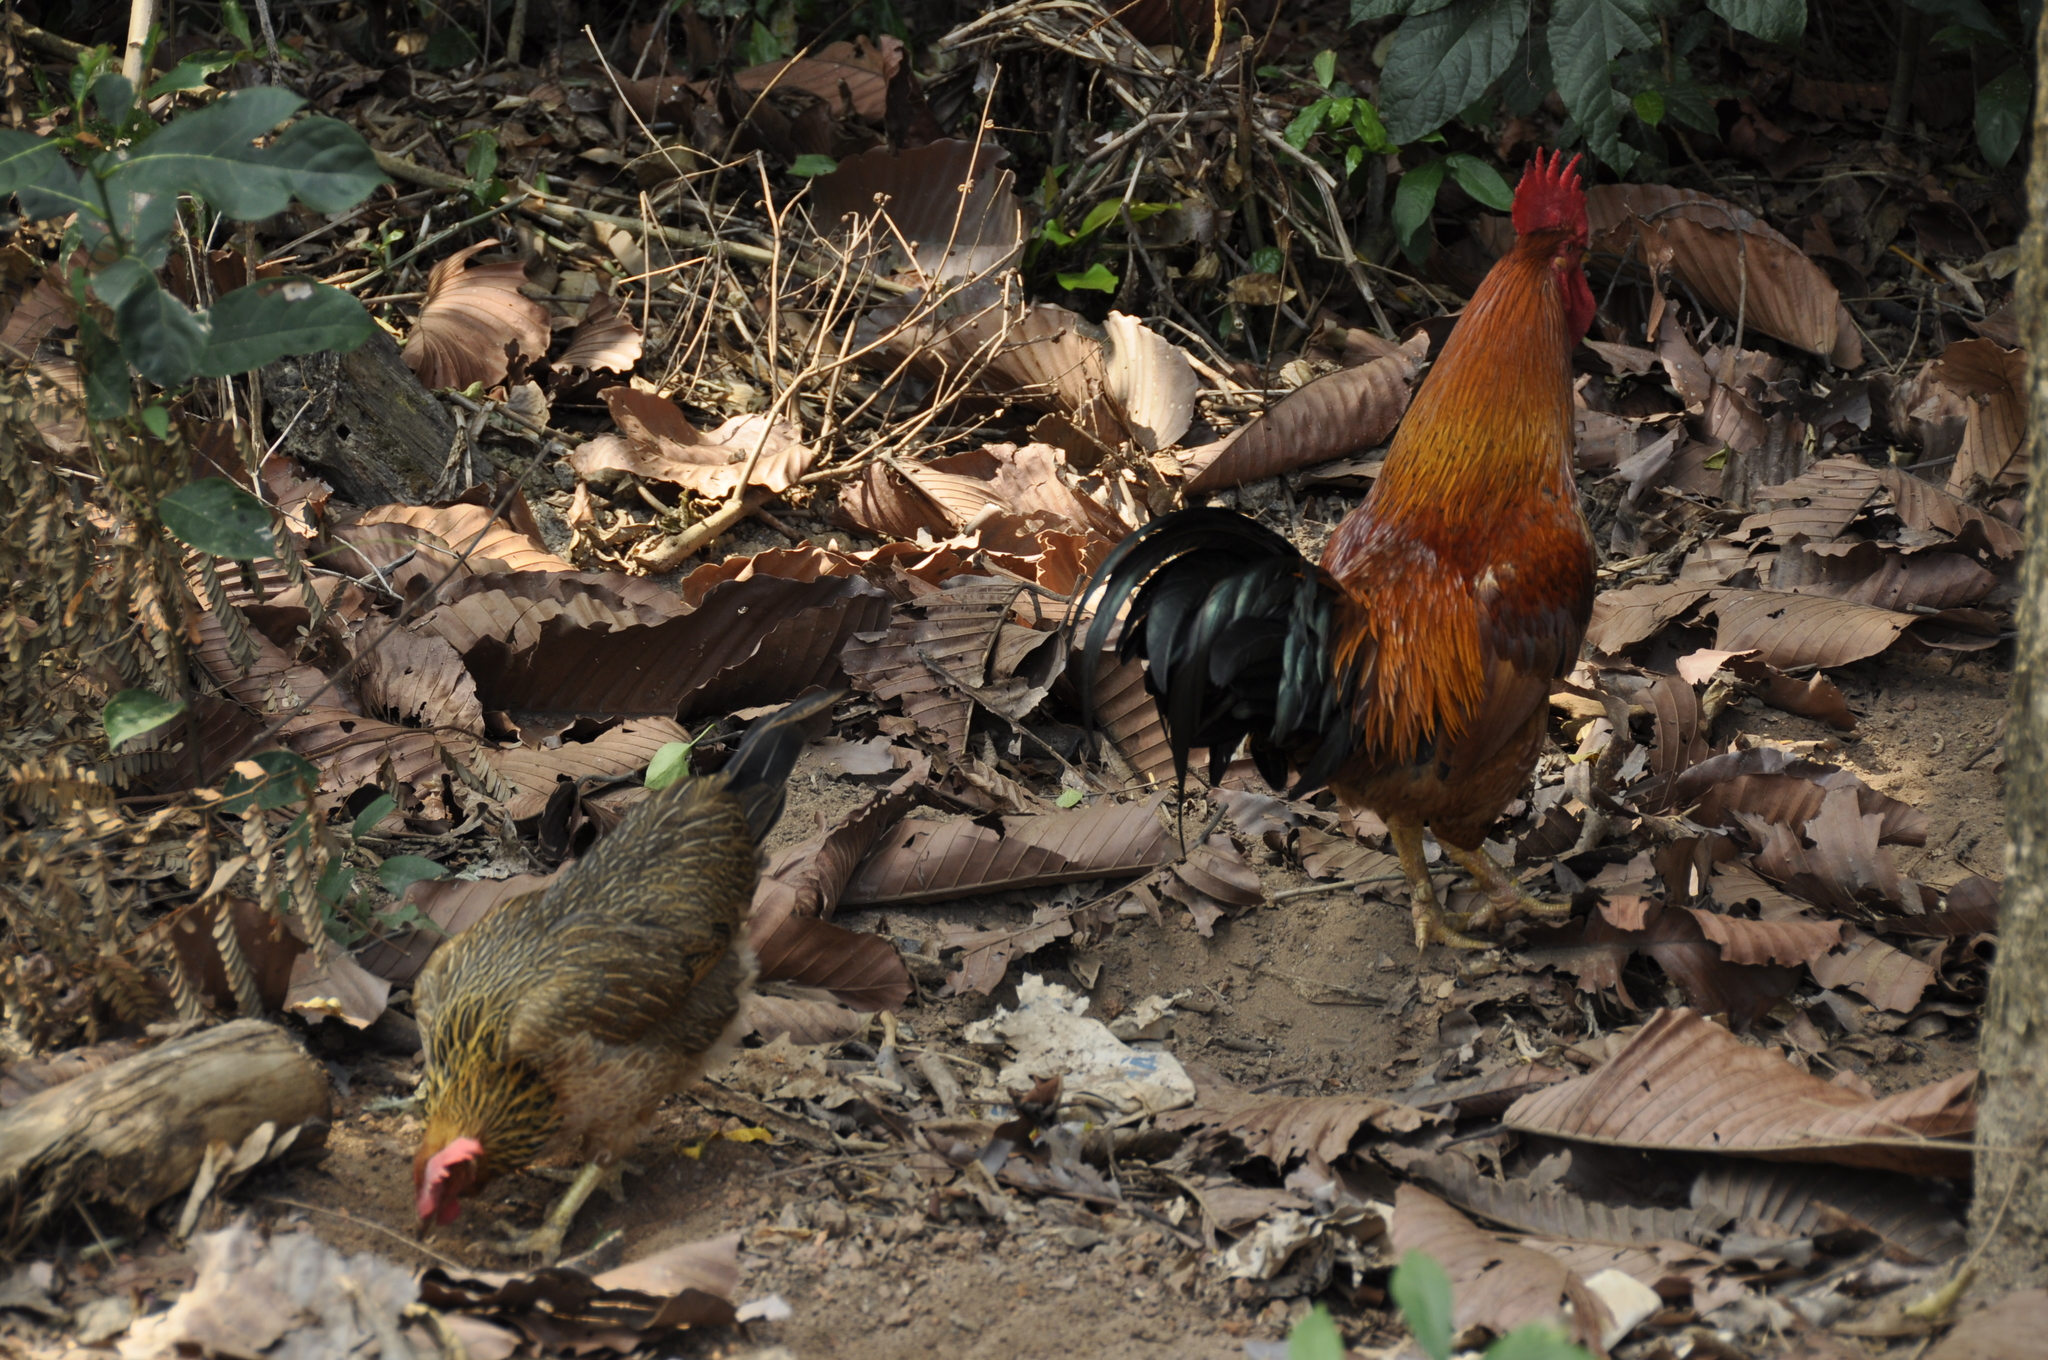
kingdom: Animalia
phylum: Chordata
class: Aves
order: Galliformes
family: Phasianidae
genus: Gallus
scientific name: Gallus gallus
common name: Red junglefowl
